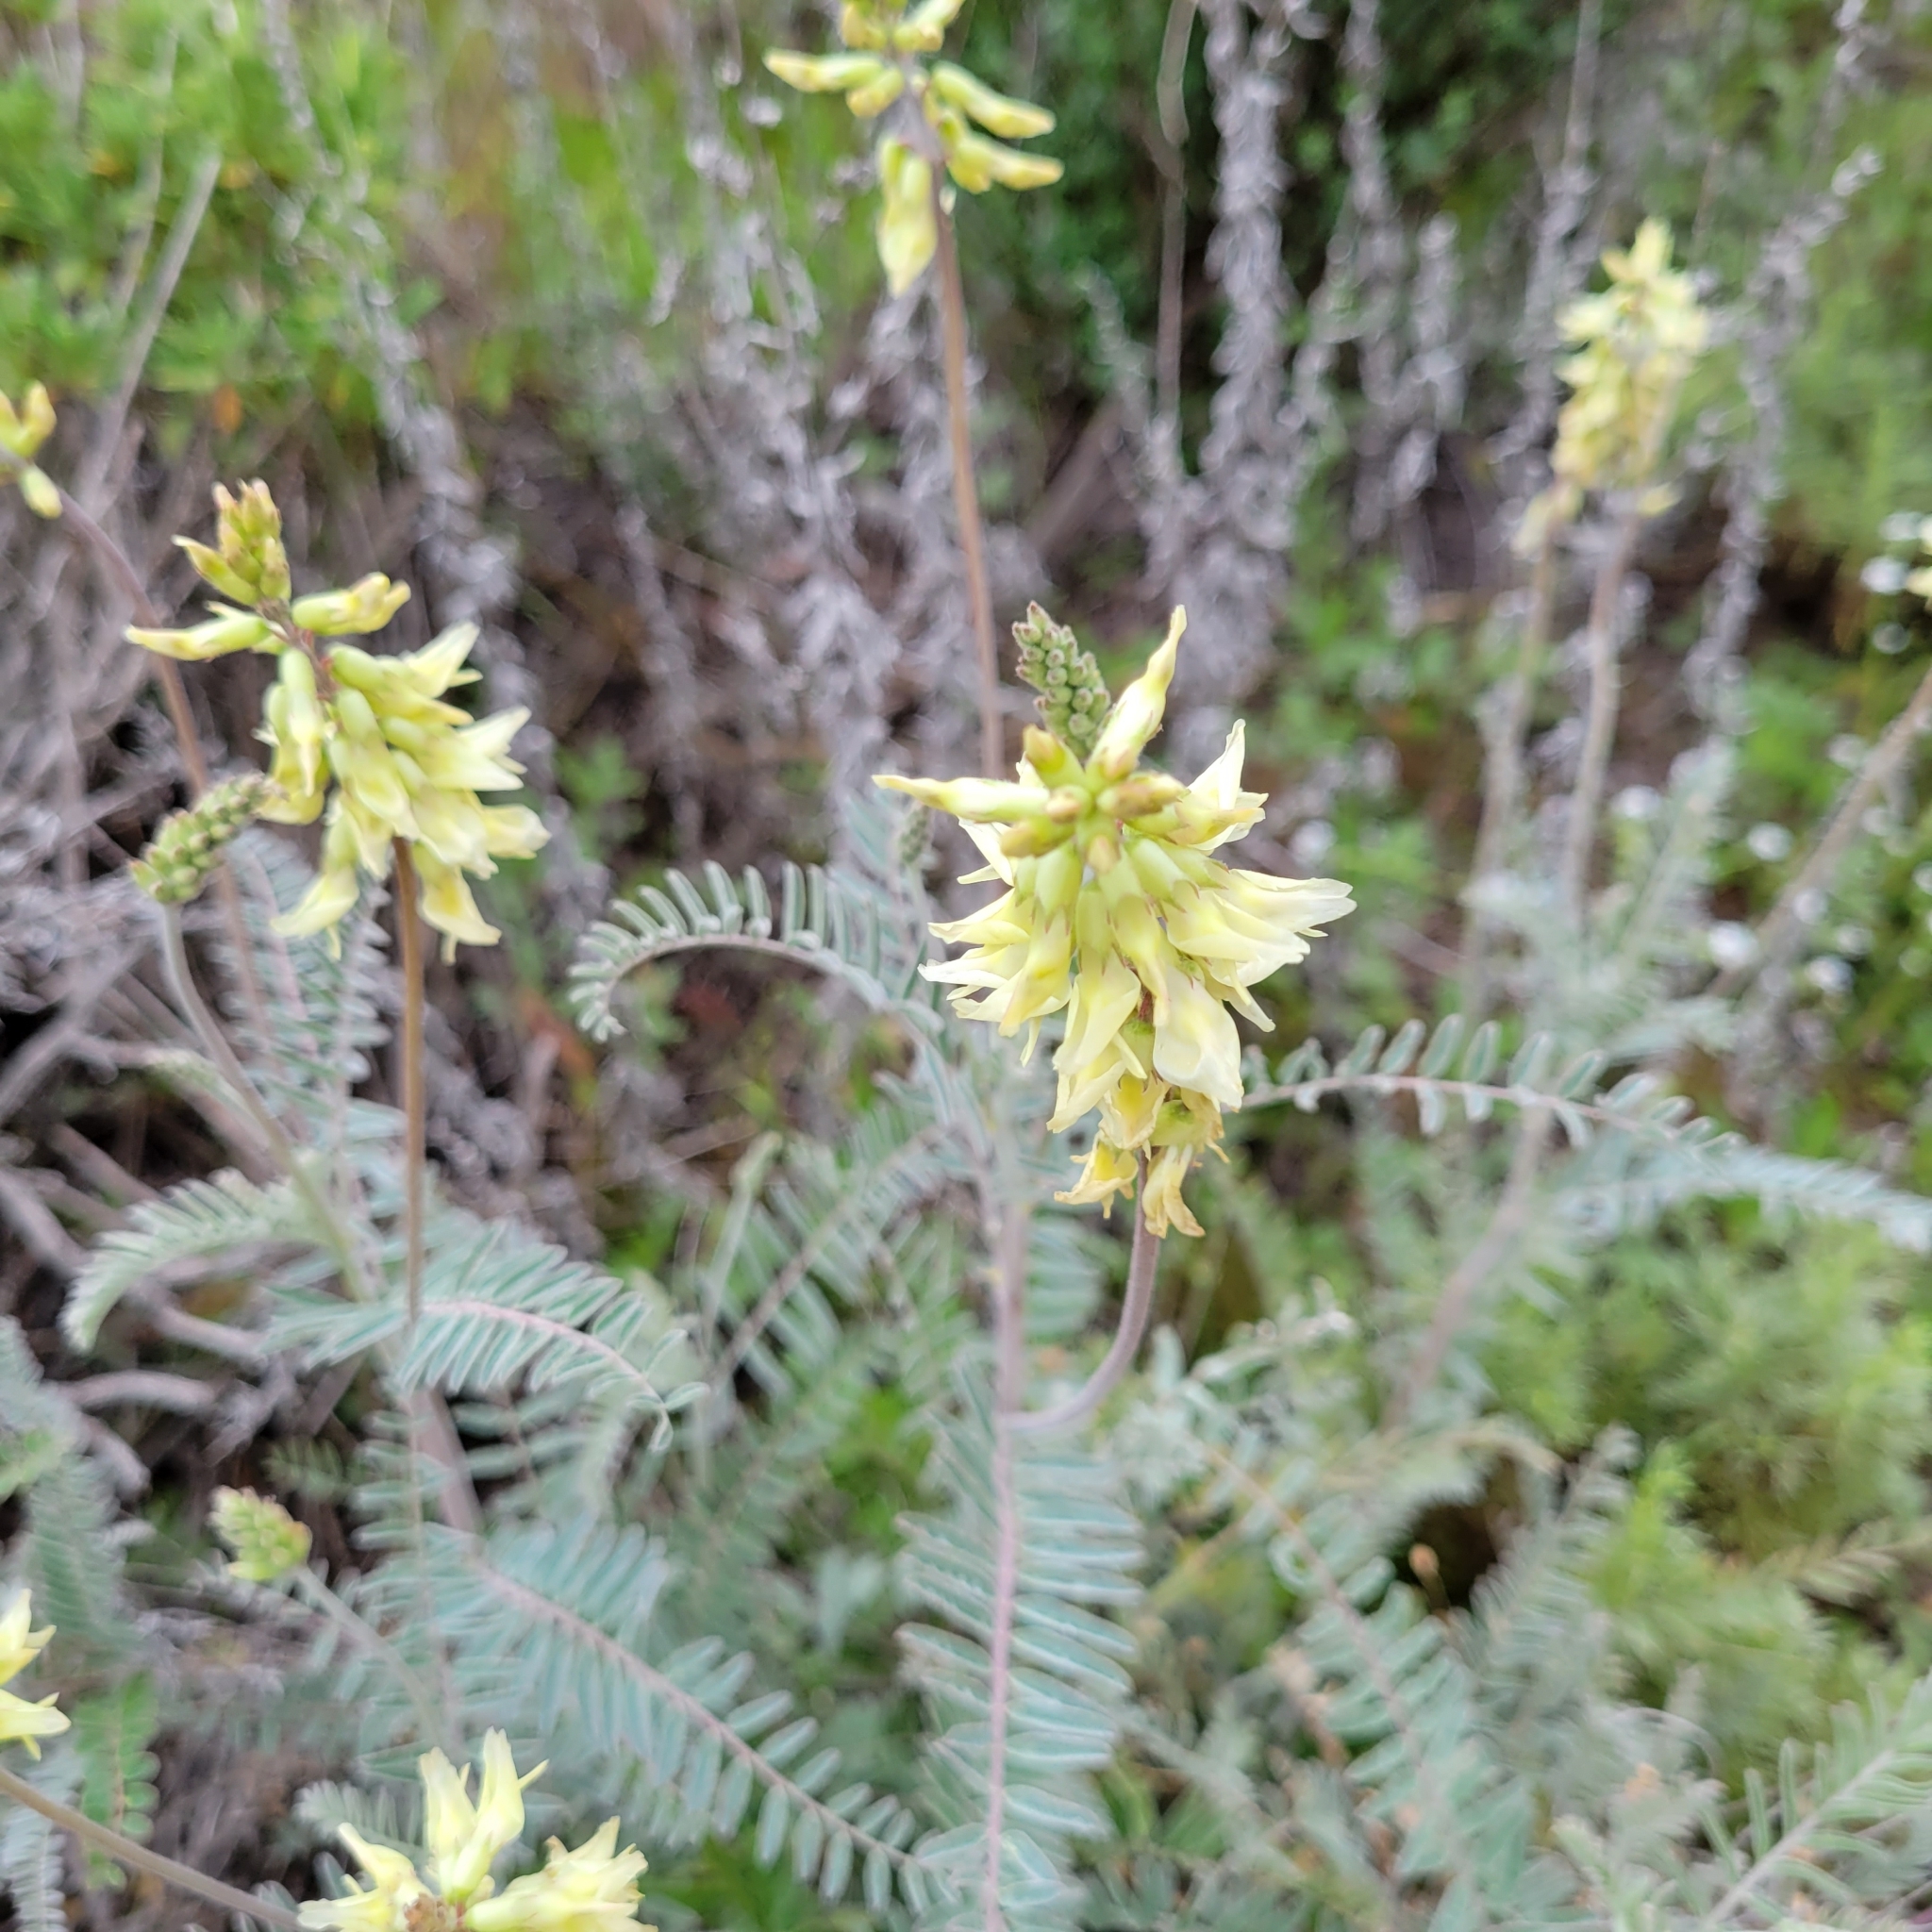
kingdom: Plantae
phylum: Tracheophyta
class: Magnoliopsida
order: Fabales
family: Fabaceae
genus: Astragalus
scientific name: Astragalus trichopodus
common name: Santa barbara milk-vetch
